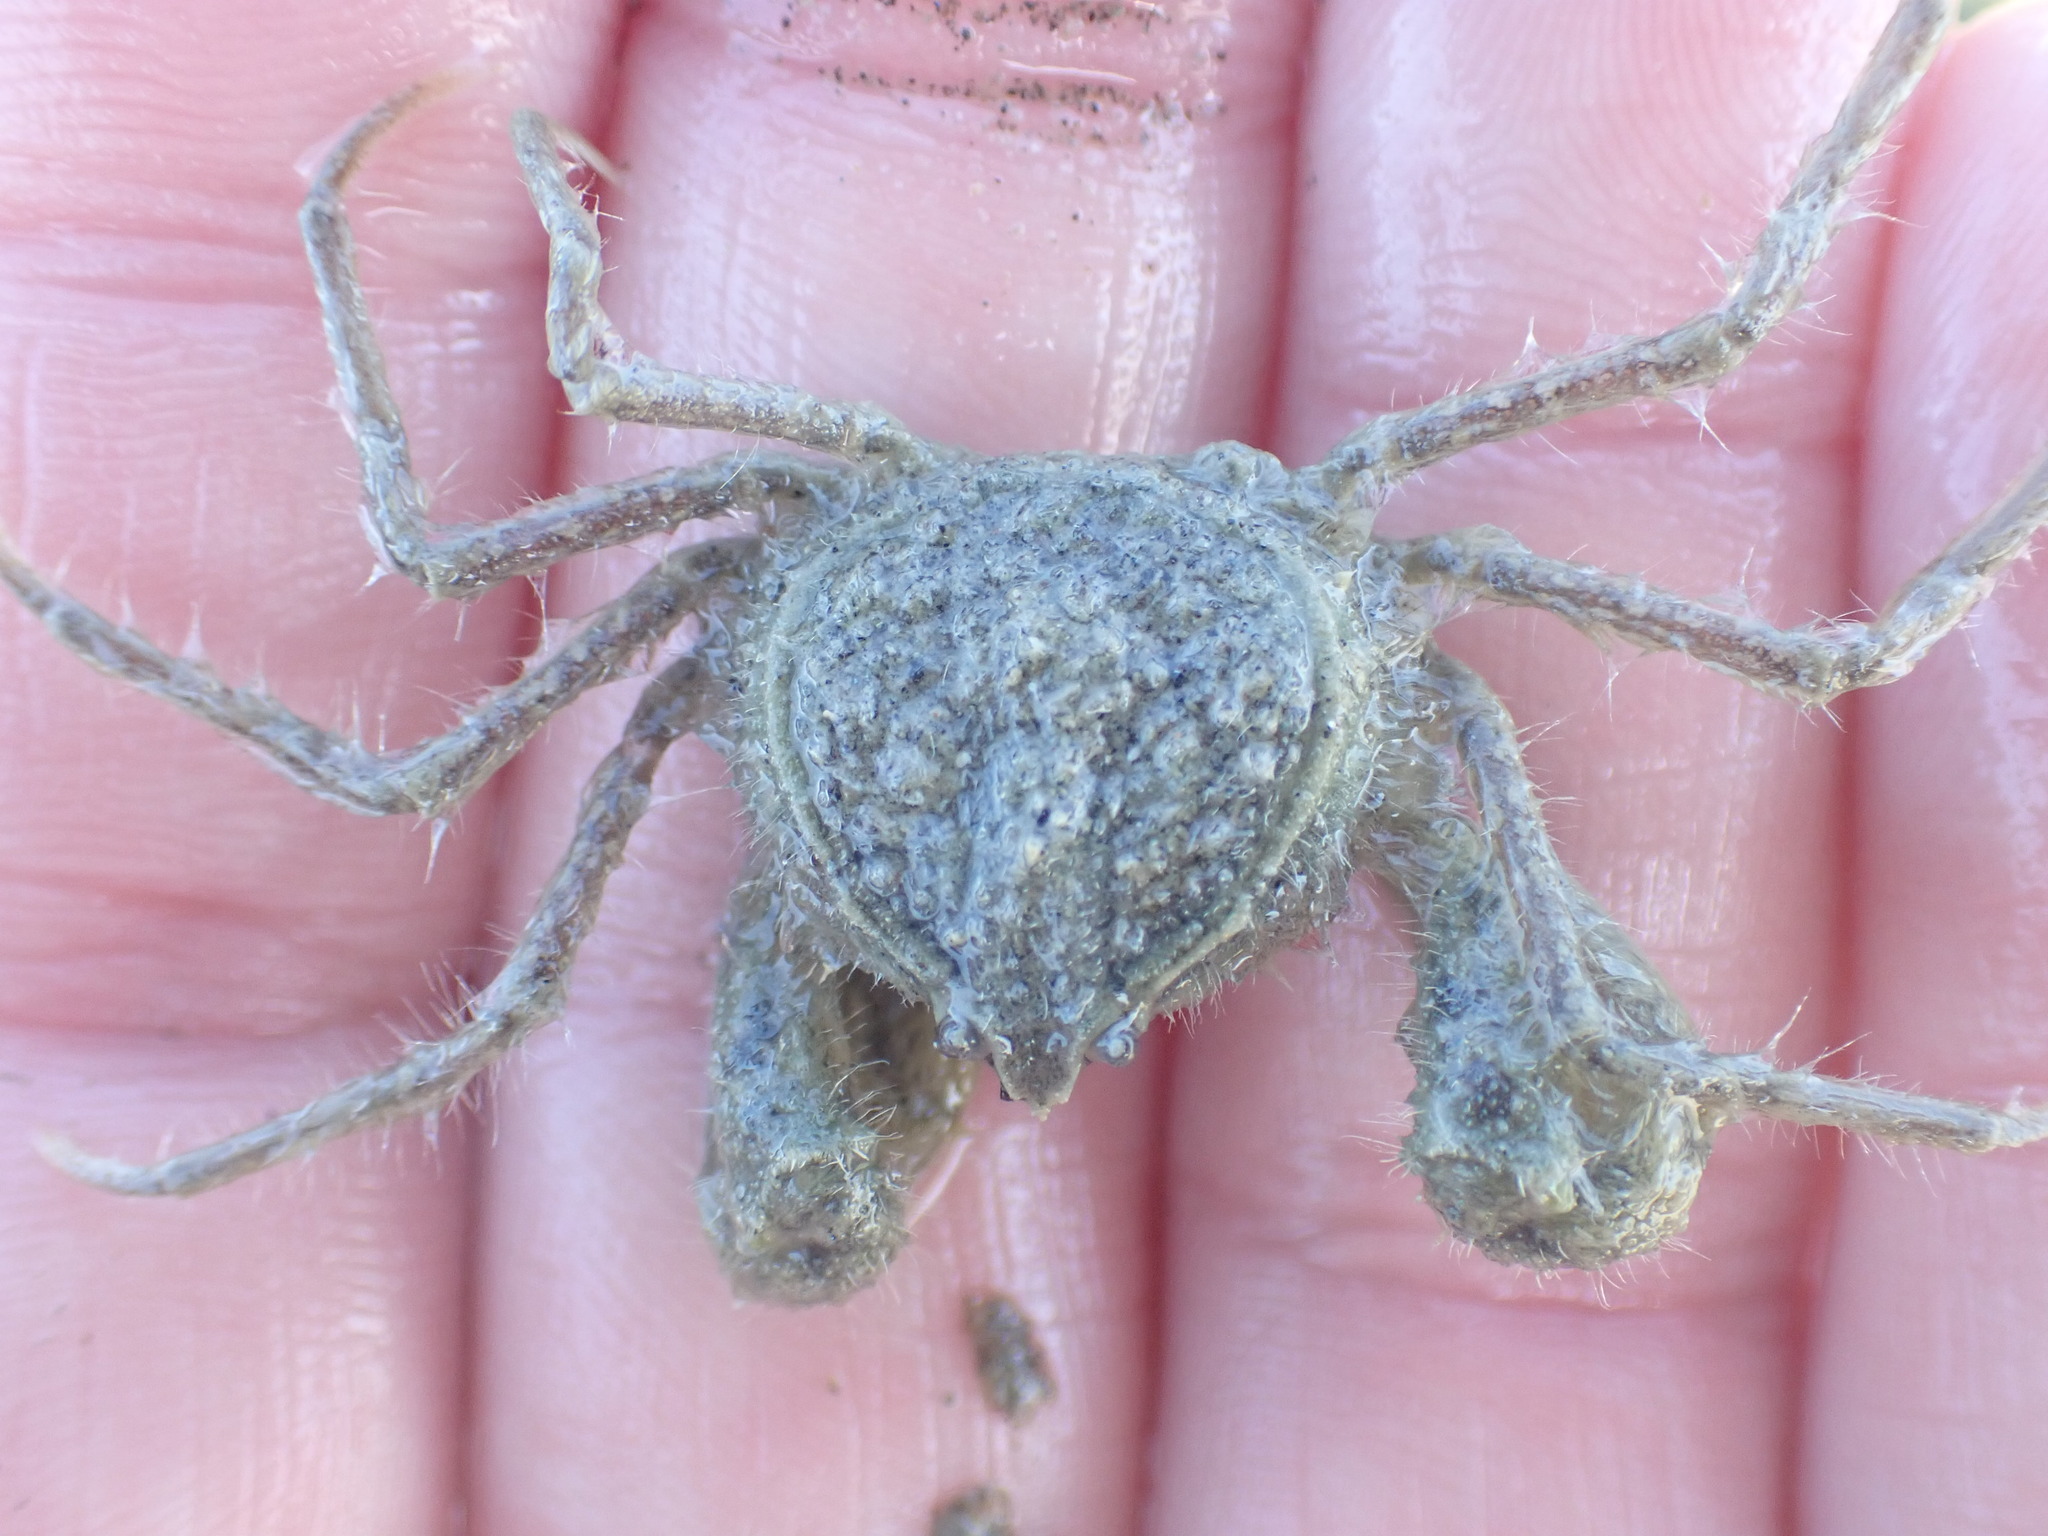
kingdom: Animalia
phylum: Arthropoda
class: Malacostraca
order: Decapoda
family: Hymenosomatidae
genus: Halicarcinus
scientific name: Halicarcinus whitei
